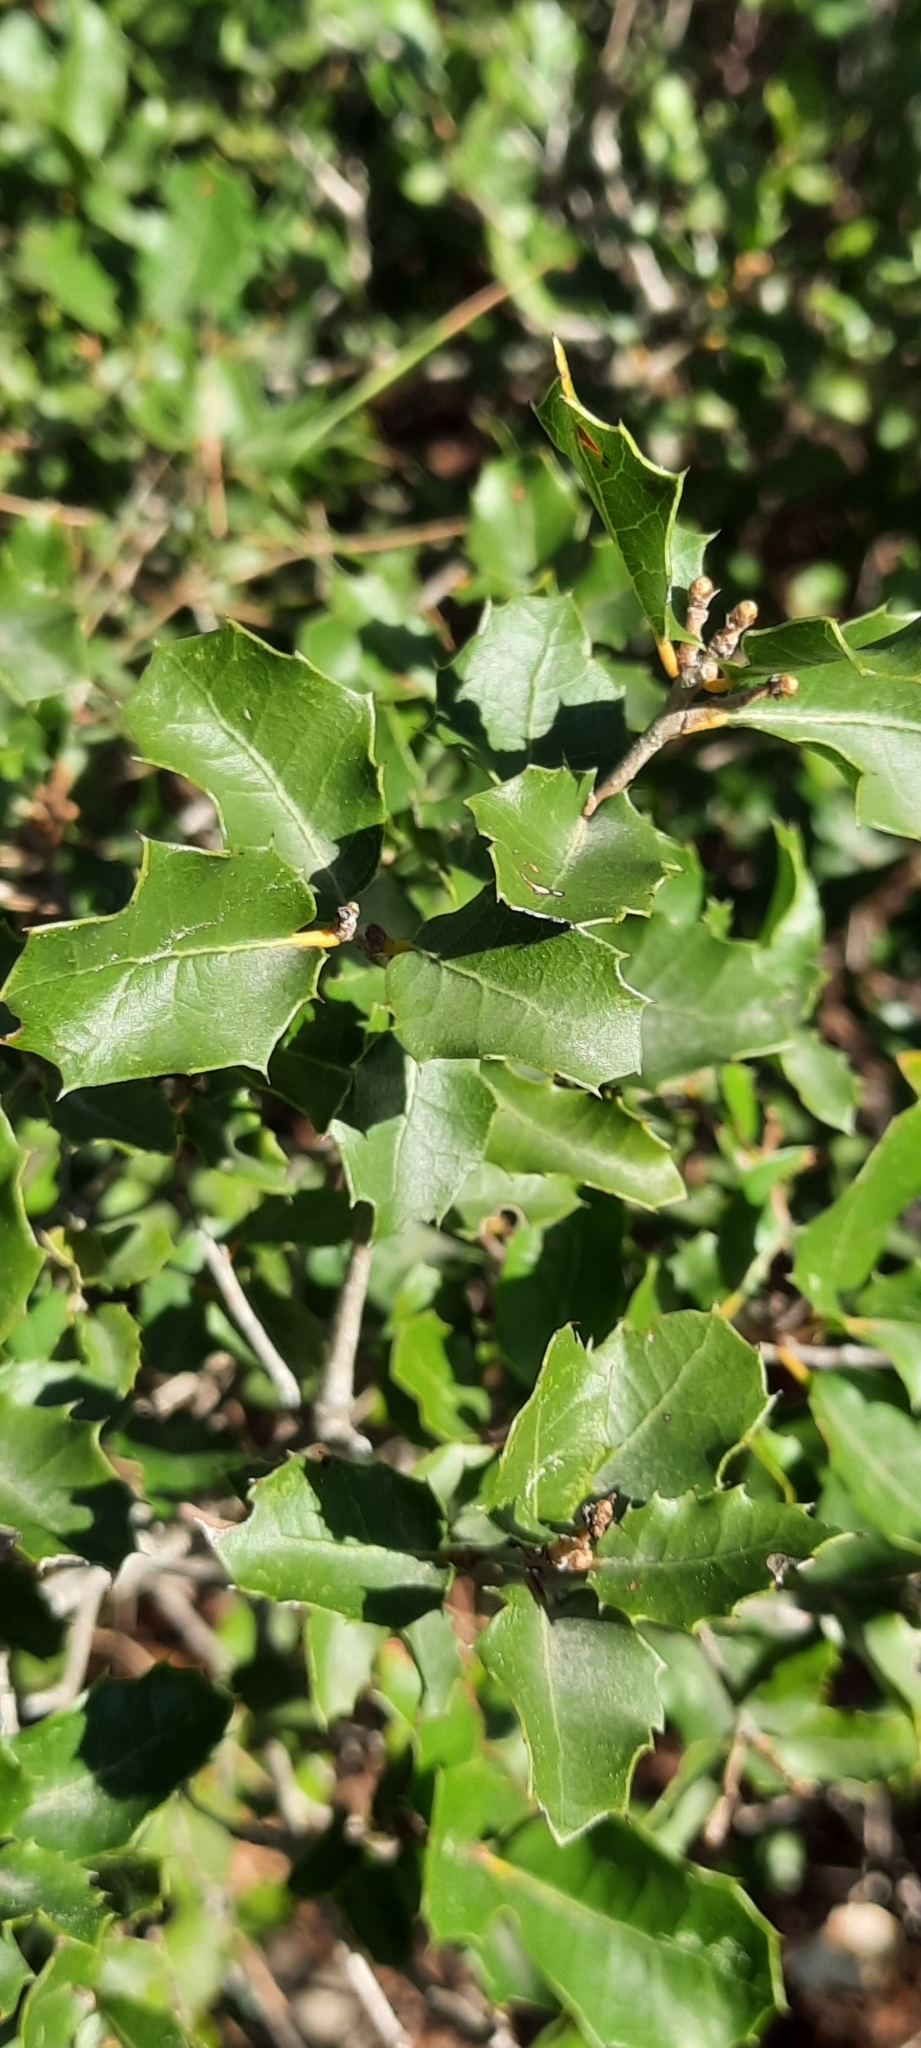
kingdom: Plantae
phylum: Tracheophyta
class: Magnoliopsida
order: Fagales
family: Fagaceae
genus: Quercus
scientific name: Quercus coccifera
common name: Kermes oak
